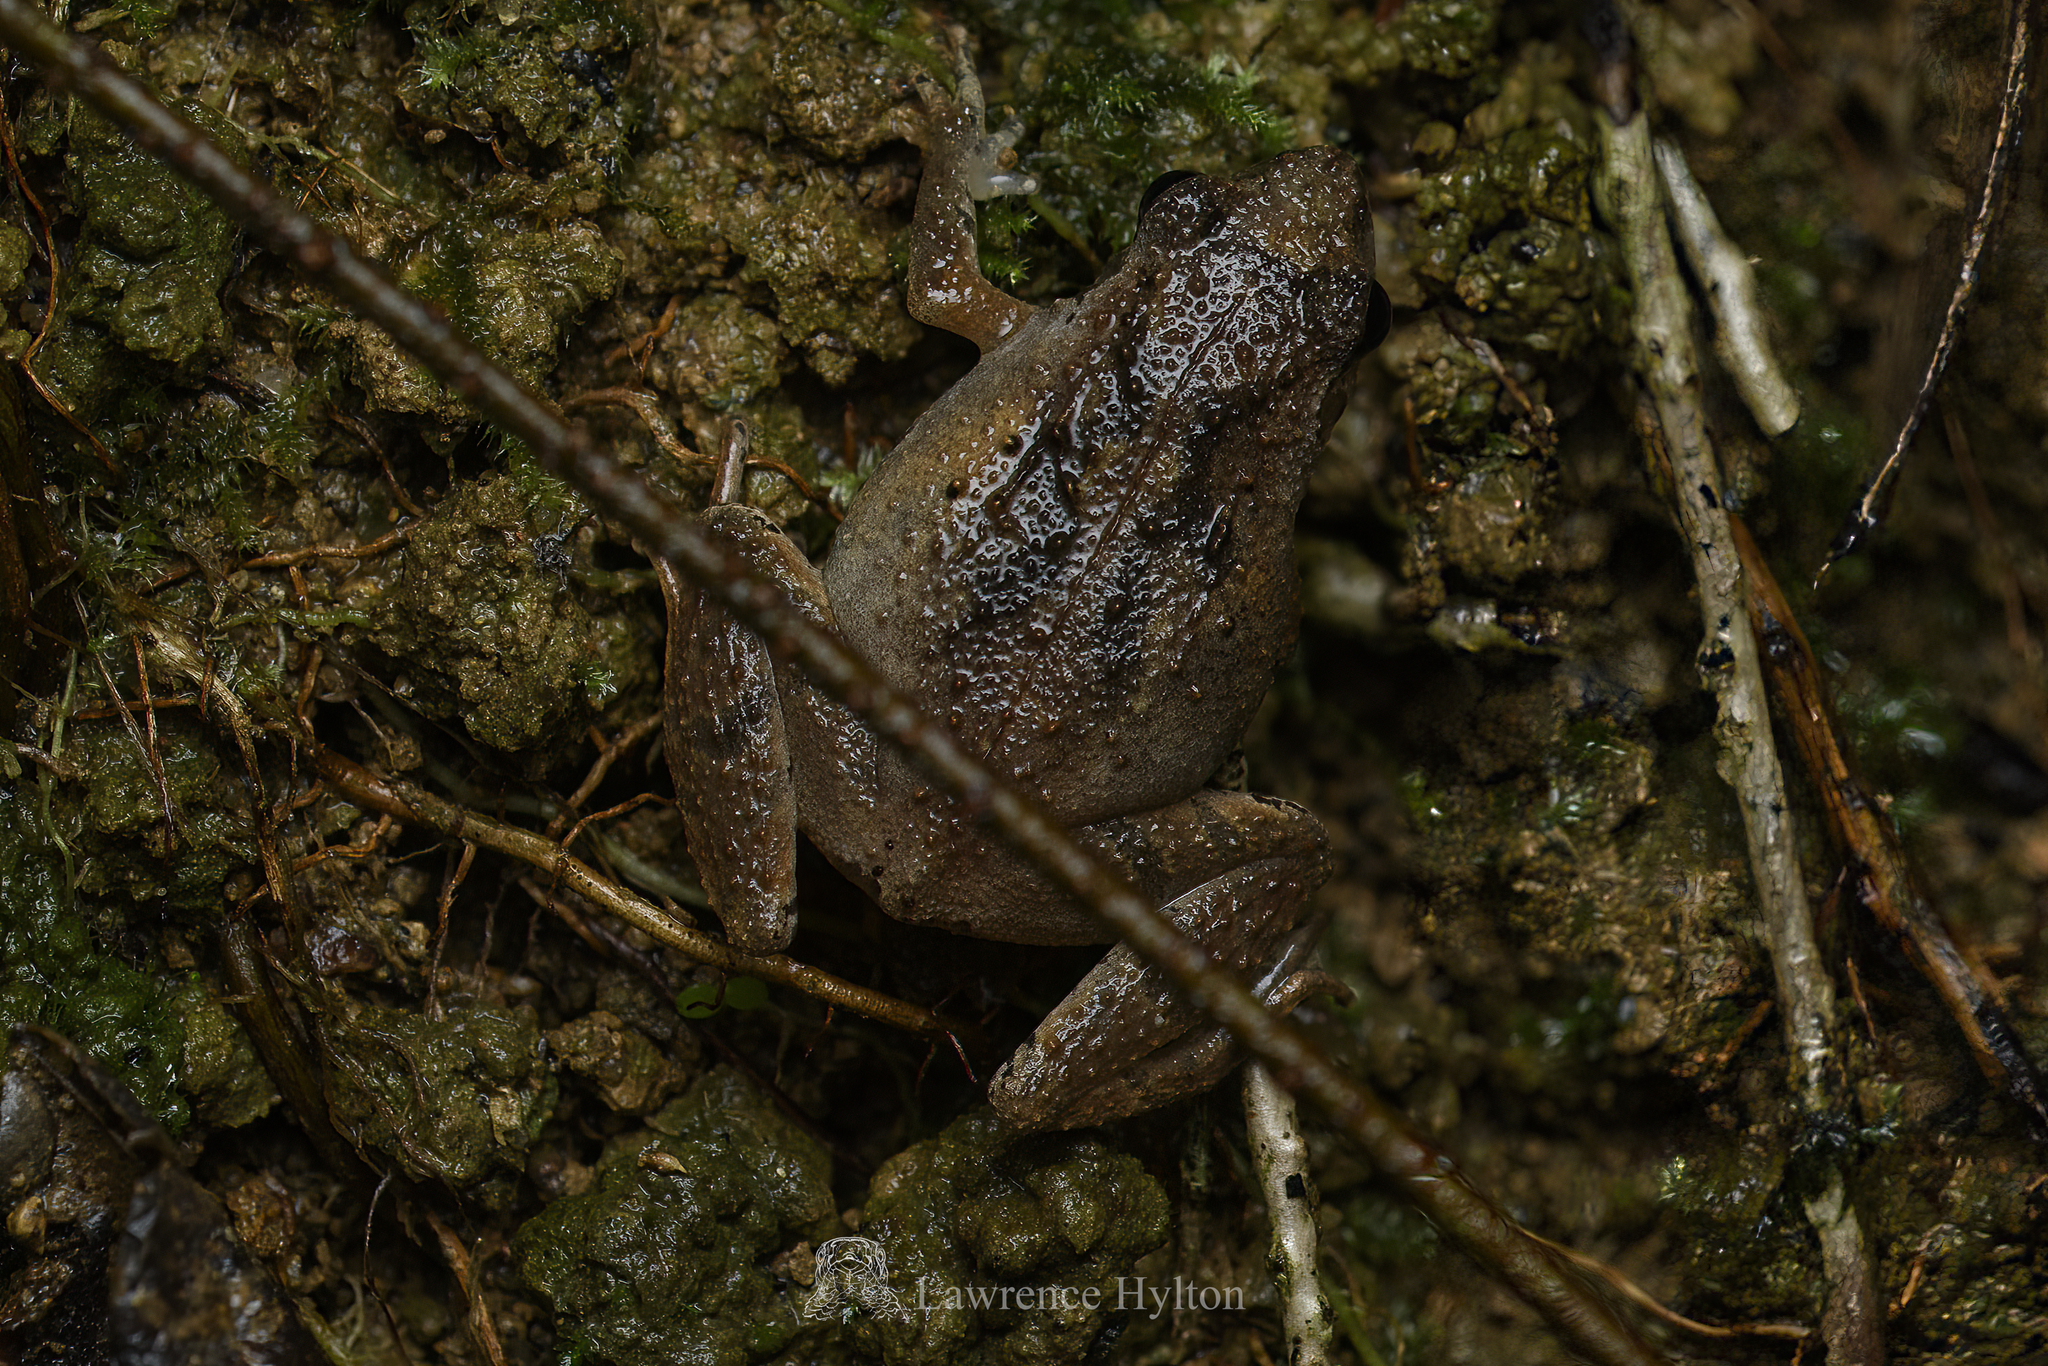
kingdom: Animalia
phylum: Chordata
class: Amphibia
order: Anura
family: Microhylidae
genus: Microhyla
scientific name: Microhyla butleri
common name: Butler’s rice frog,painted chorus frog,tubercled pygmy frog
